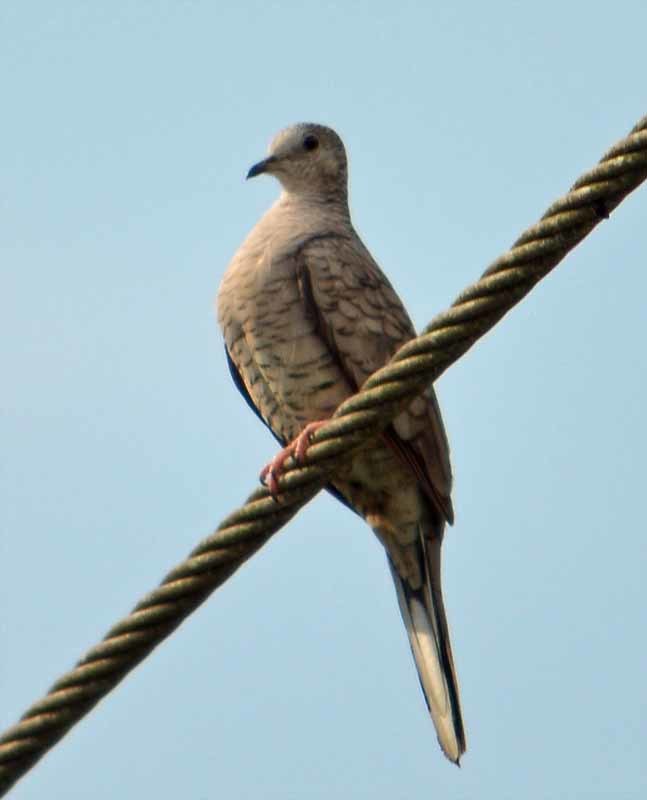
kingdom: Animalia
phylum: Chordata
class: Aves
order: Columbiformes
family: Columbidae
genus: Columbina
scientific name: Columbina inca
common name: Inca dove
